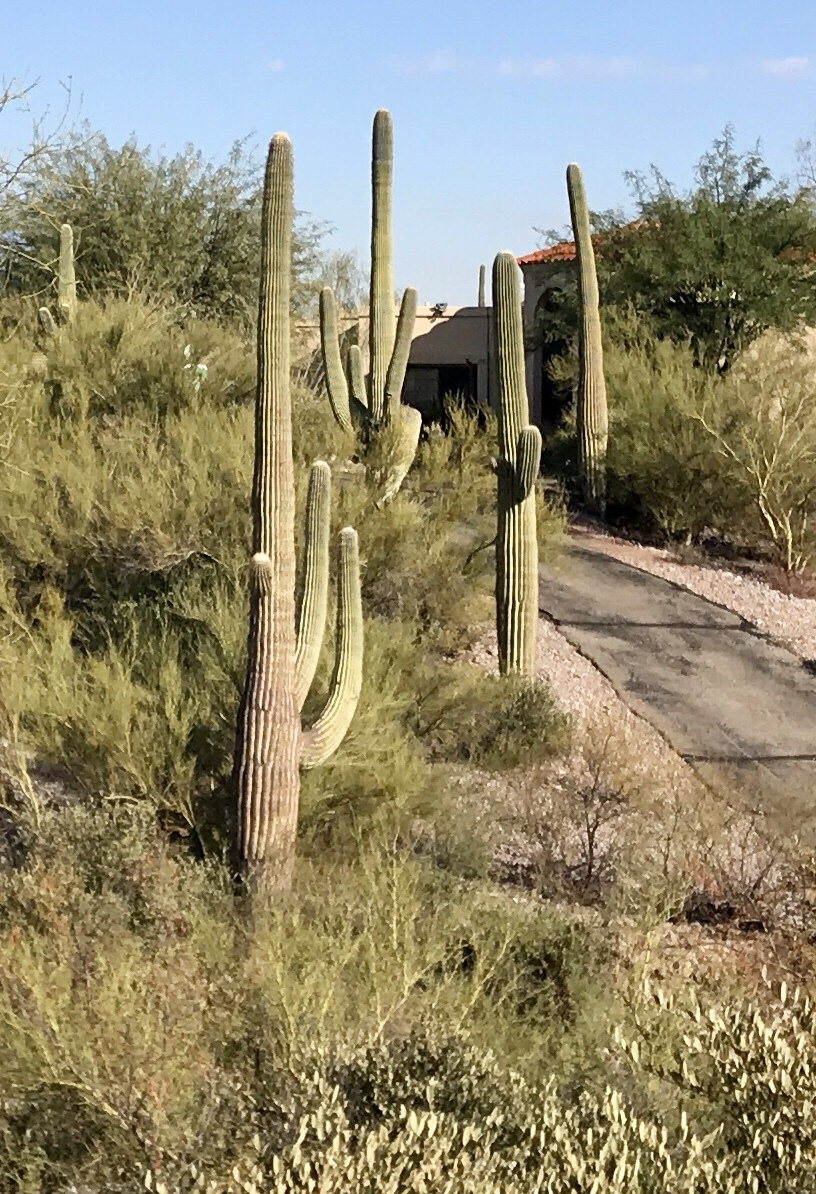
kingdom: Plantae
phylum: Tracheophyta
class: Magnoliopsida
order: Caryophyllales
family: Cactaceae
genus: Carnegiea
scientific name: Carnegiea gigantea
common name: Saguaro
